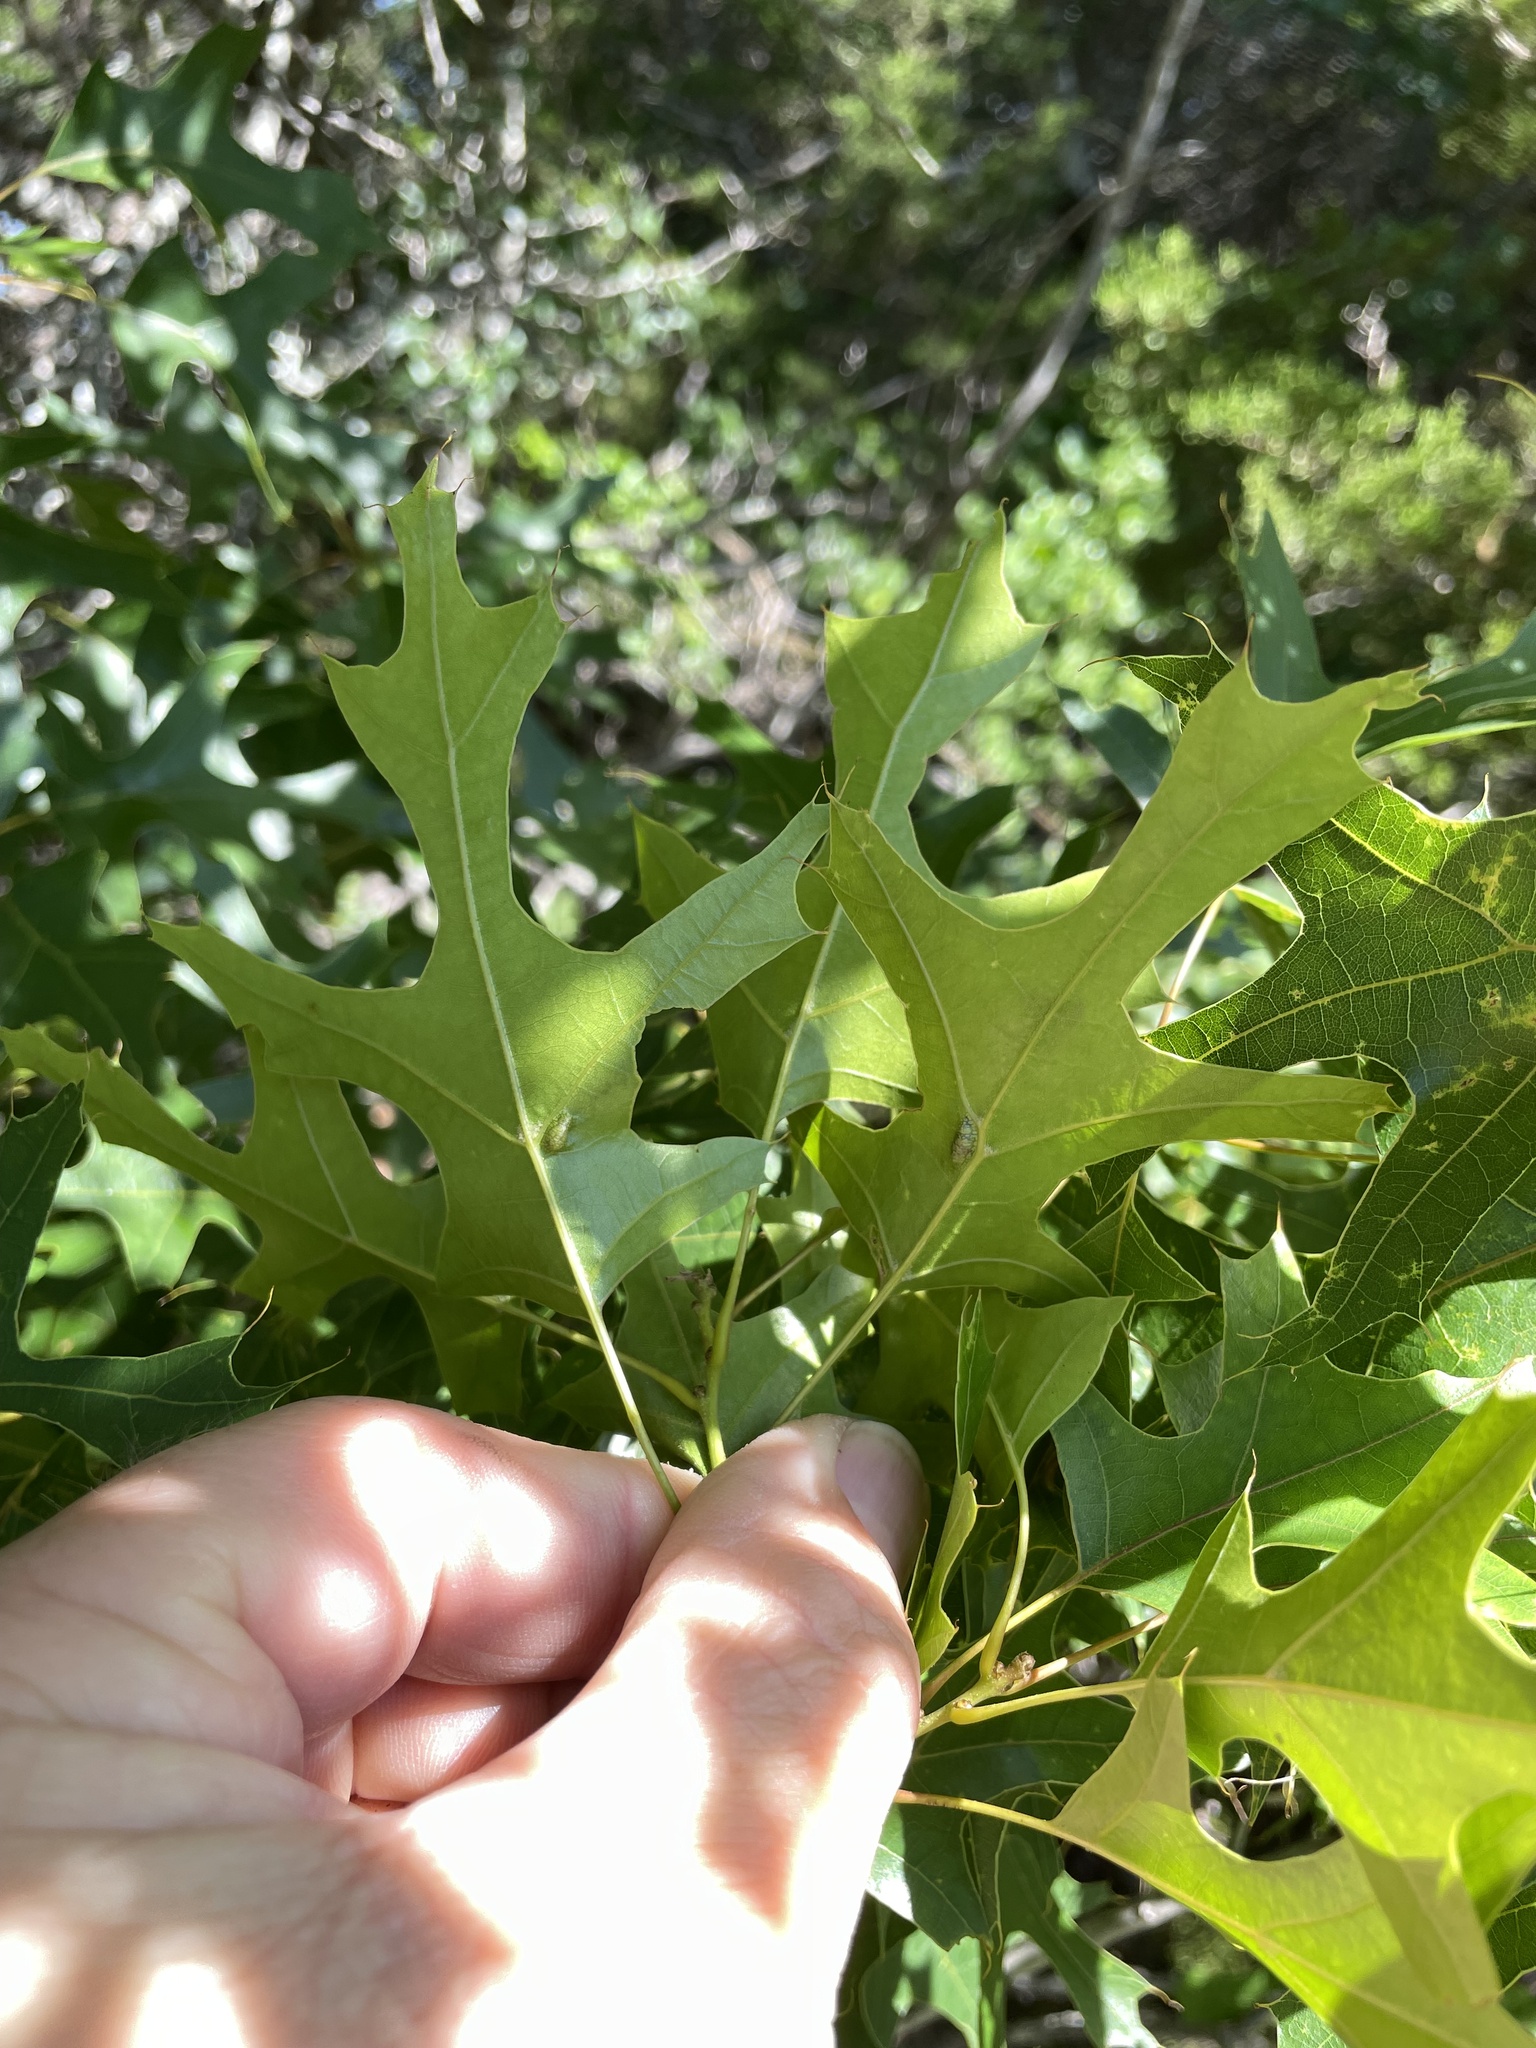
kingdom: Plantae
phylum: Tracheophyta
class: Magnoliopsida
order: Fagales
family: Fagaceae
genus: Quercus
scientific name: Quercus buckleyi
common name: Buckley oak
